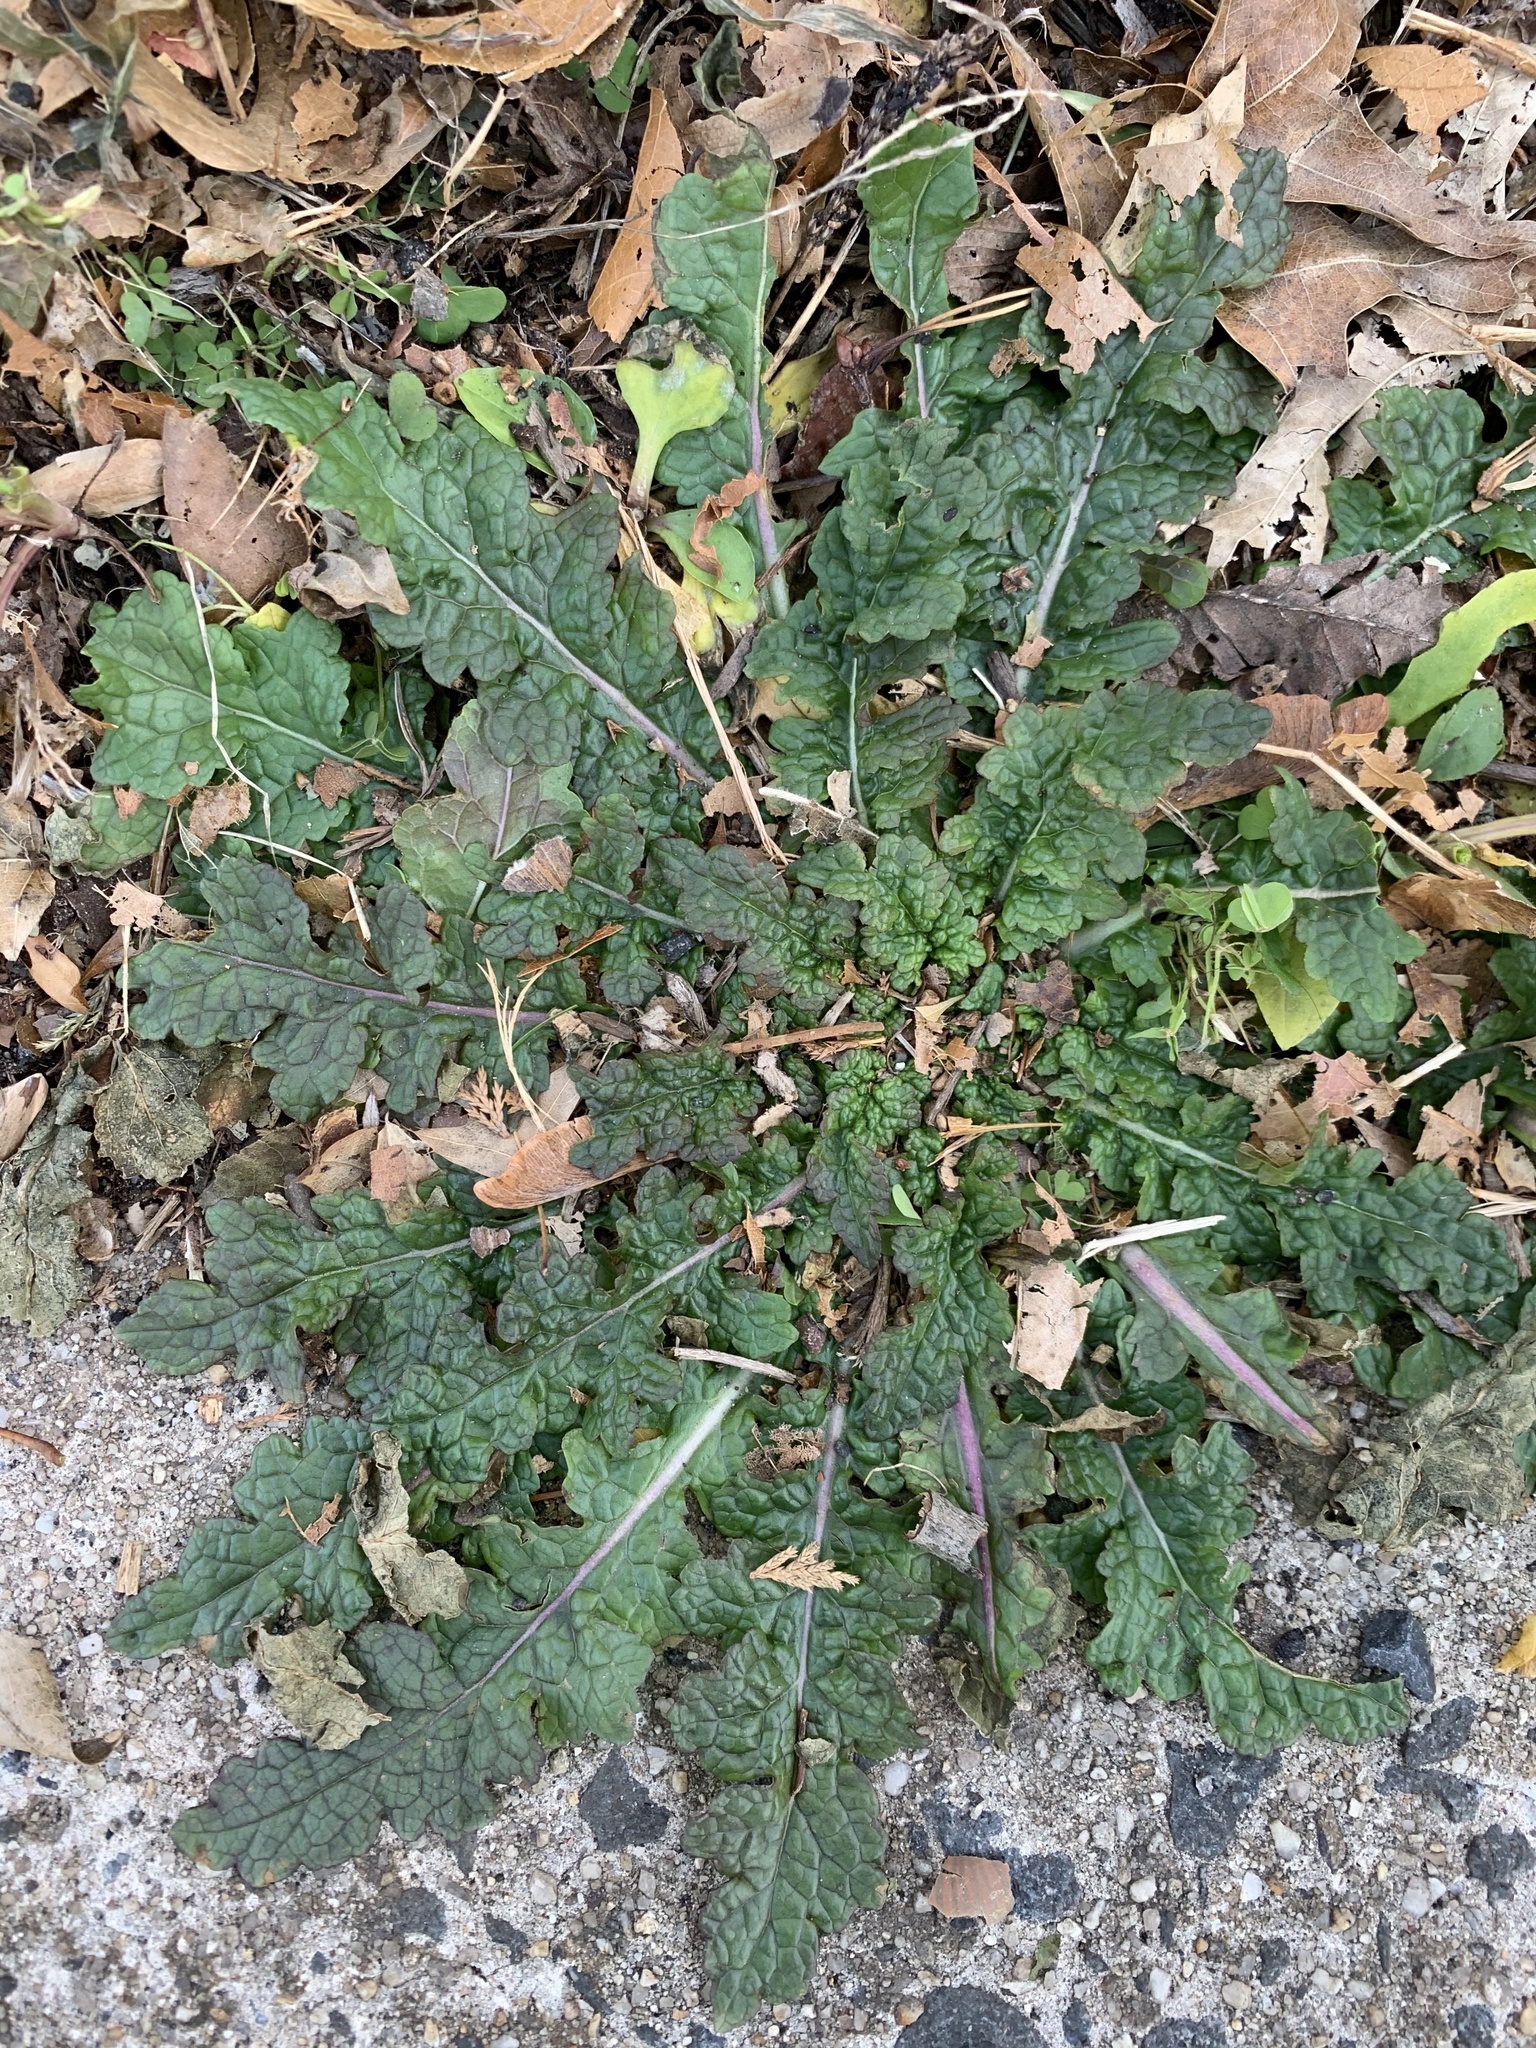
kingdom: Plantae
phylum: Tracheophyta
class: Magnoliopsida
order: Lamiales
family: Scrophulariaceae
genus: Verbascum
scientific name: Verbascum blattaria
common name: Moth mullein
